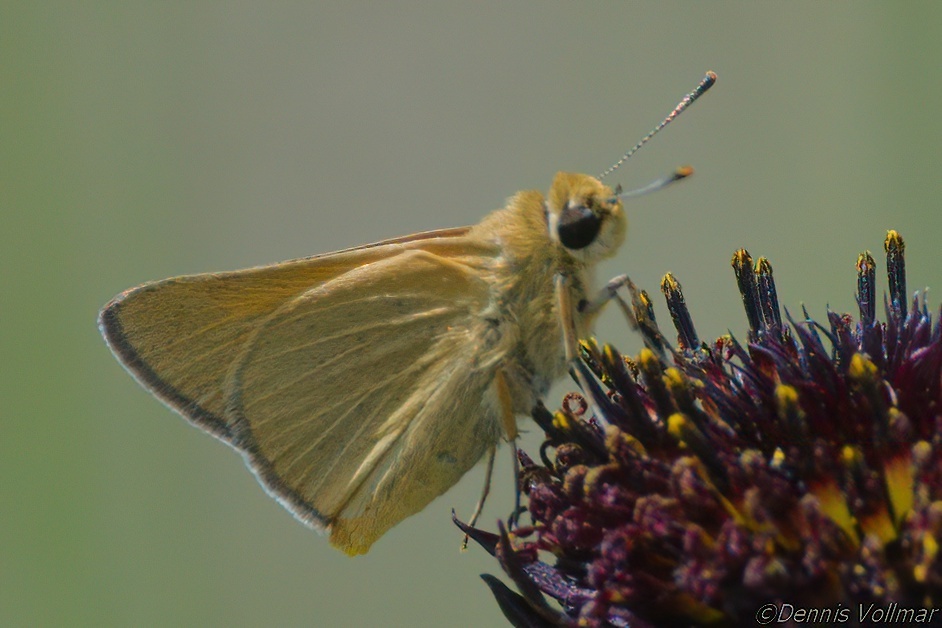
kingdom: Animalia
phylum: Arthropoda
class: Insecta
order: Lepidoptera
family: Hesperiidae
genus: Atrytone
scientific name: Atrytone arogos
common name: Arogos skipper
